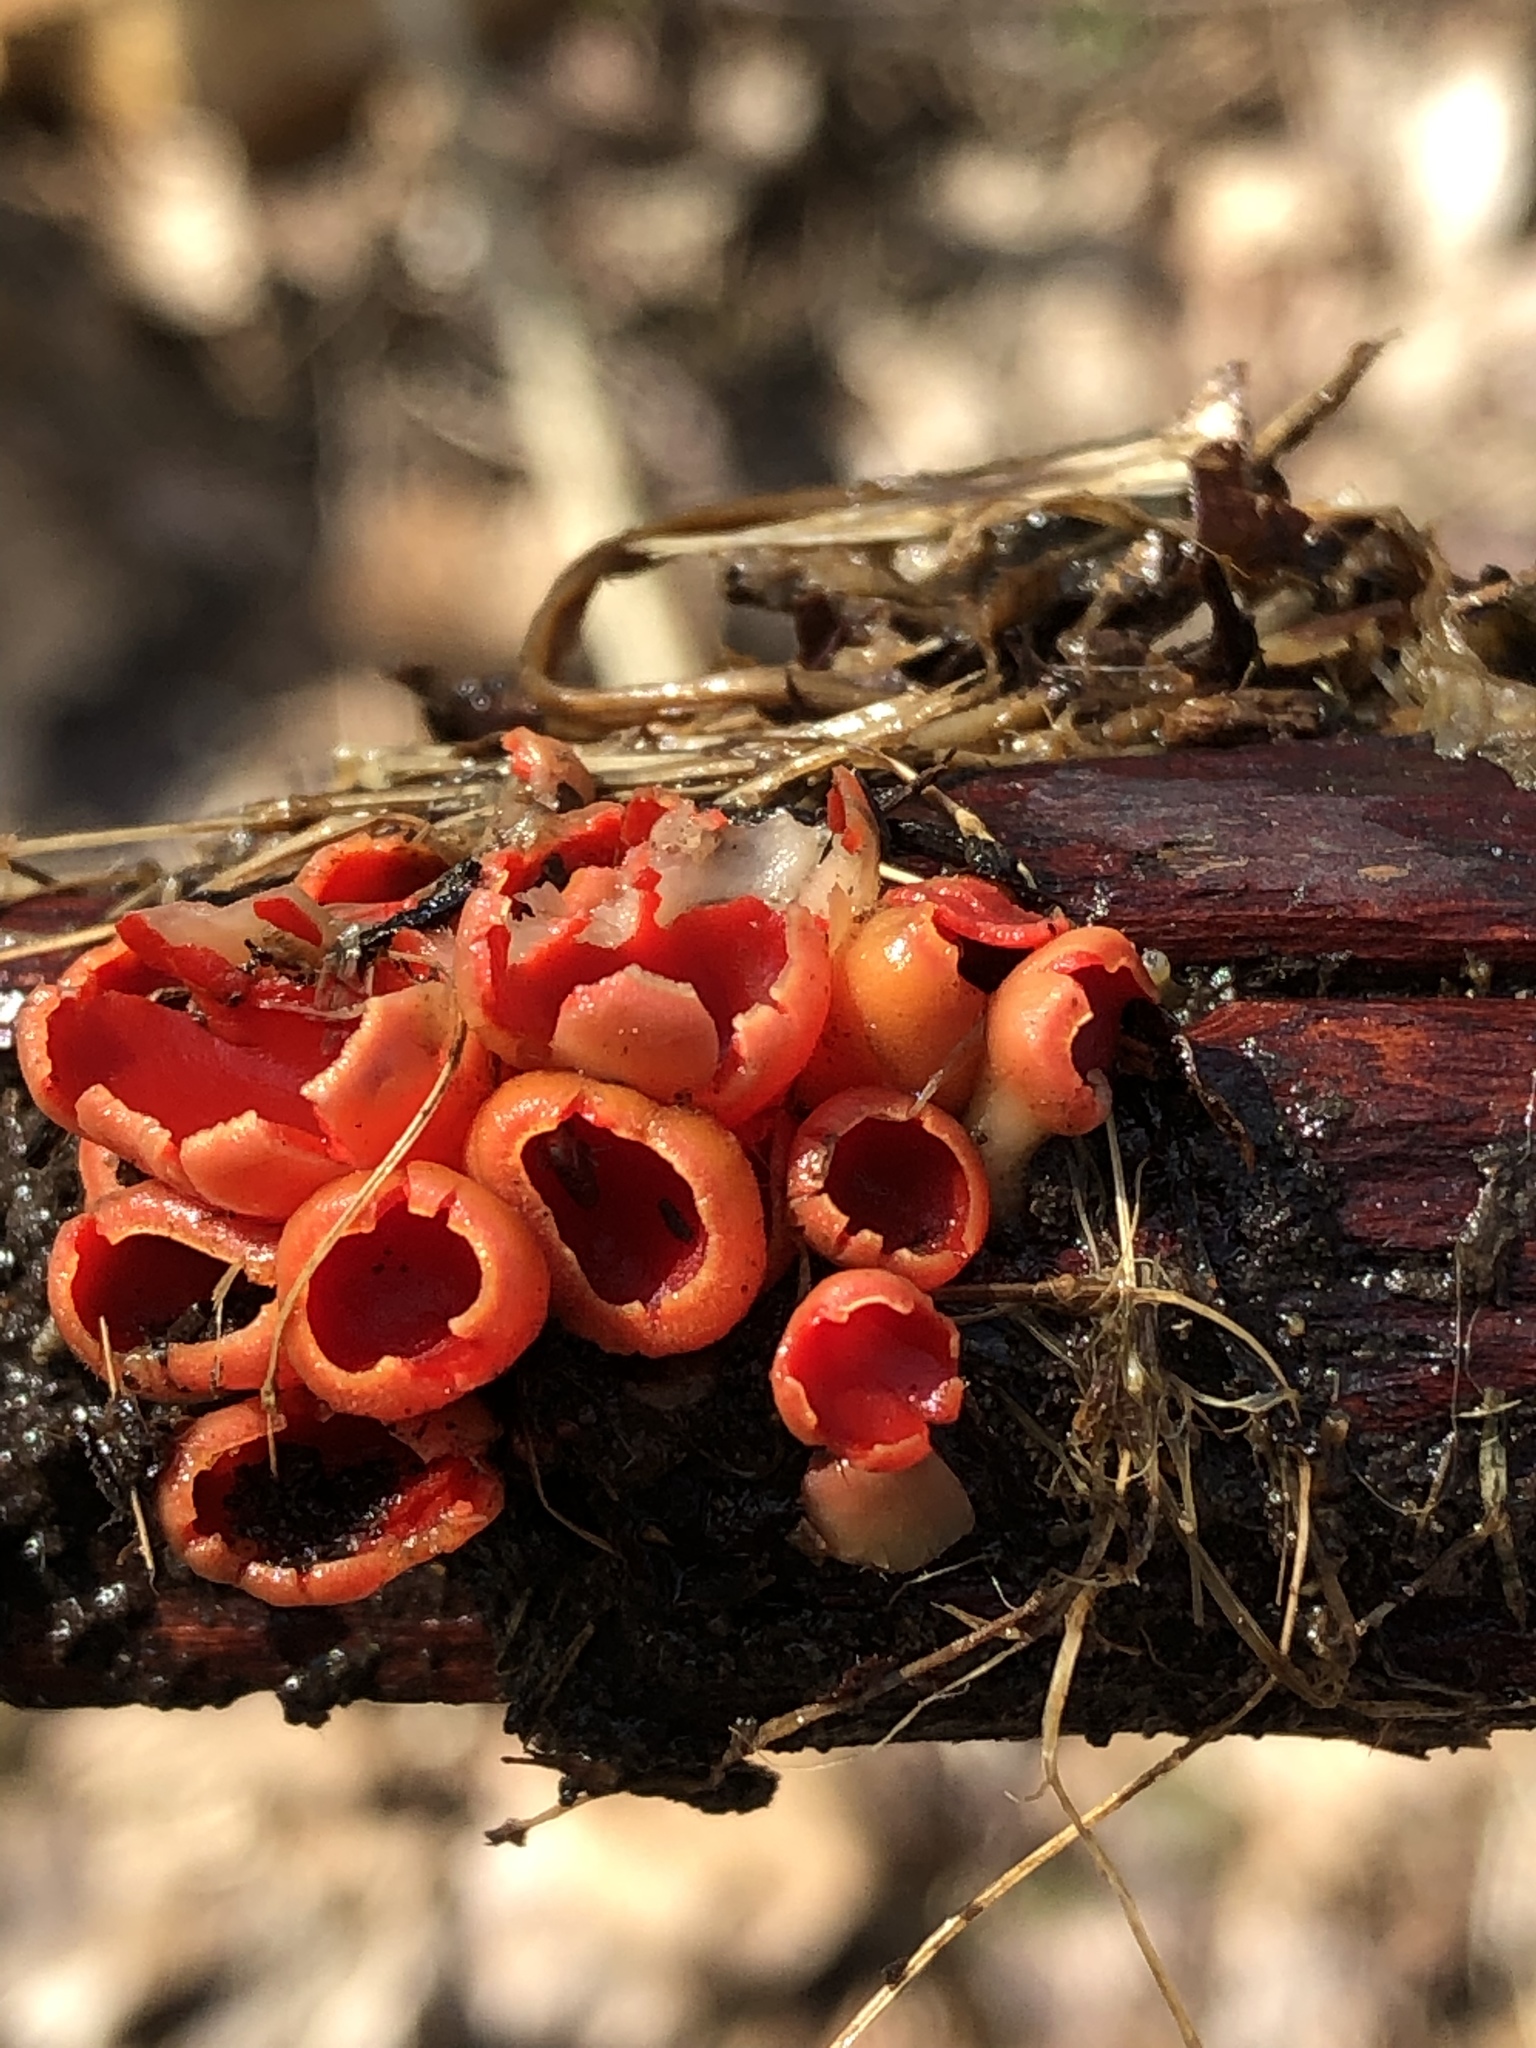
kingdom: Fungi
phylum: Ascomycota
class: Pezizomycetes
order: Pezizales
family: Sarcoscyphaceae
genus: Sarcoscypha
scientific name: Sarcoscypha austriaca
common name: Scarlet elfcup
